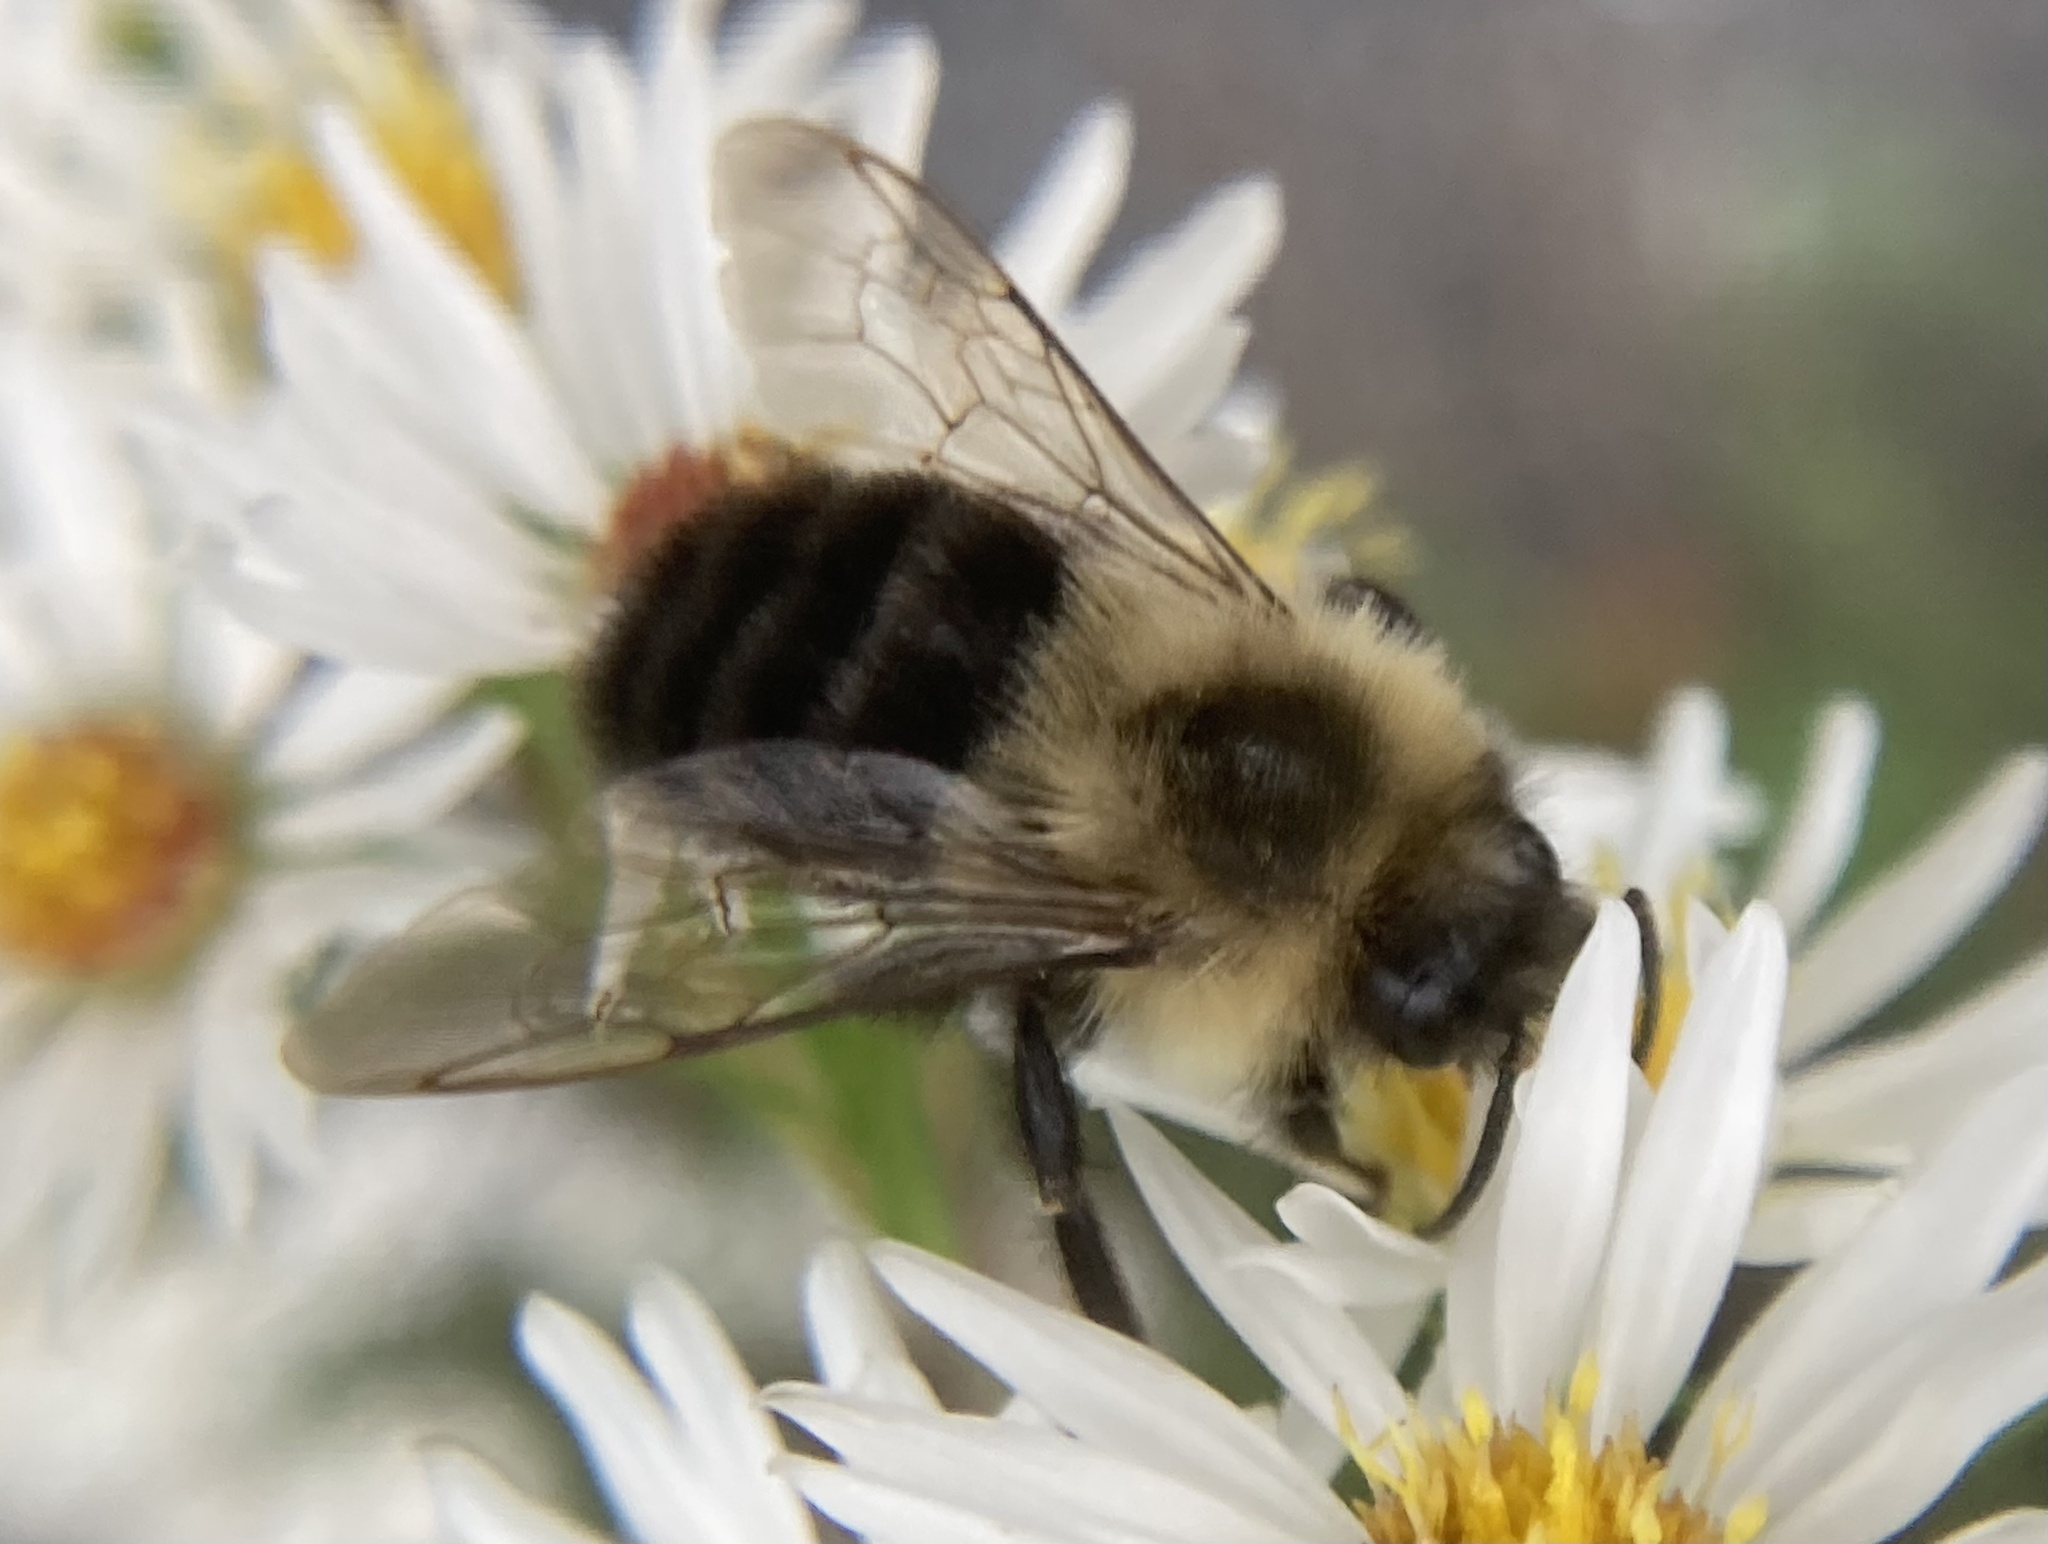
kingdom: Animalia
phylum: Arthropoda
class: Insecta
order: Hymenoptera
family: Apidae
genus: Bombus
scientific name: Bombus impatiens
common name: Common eastern bumble bee
